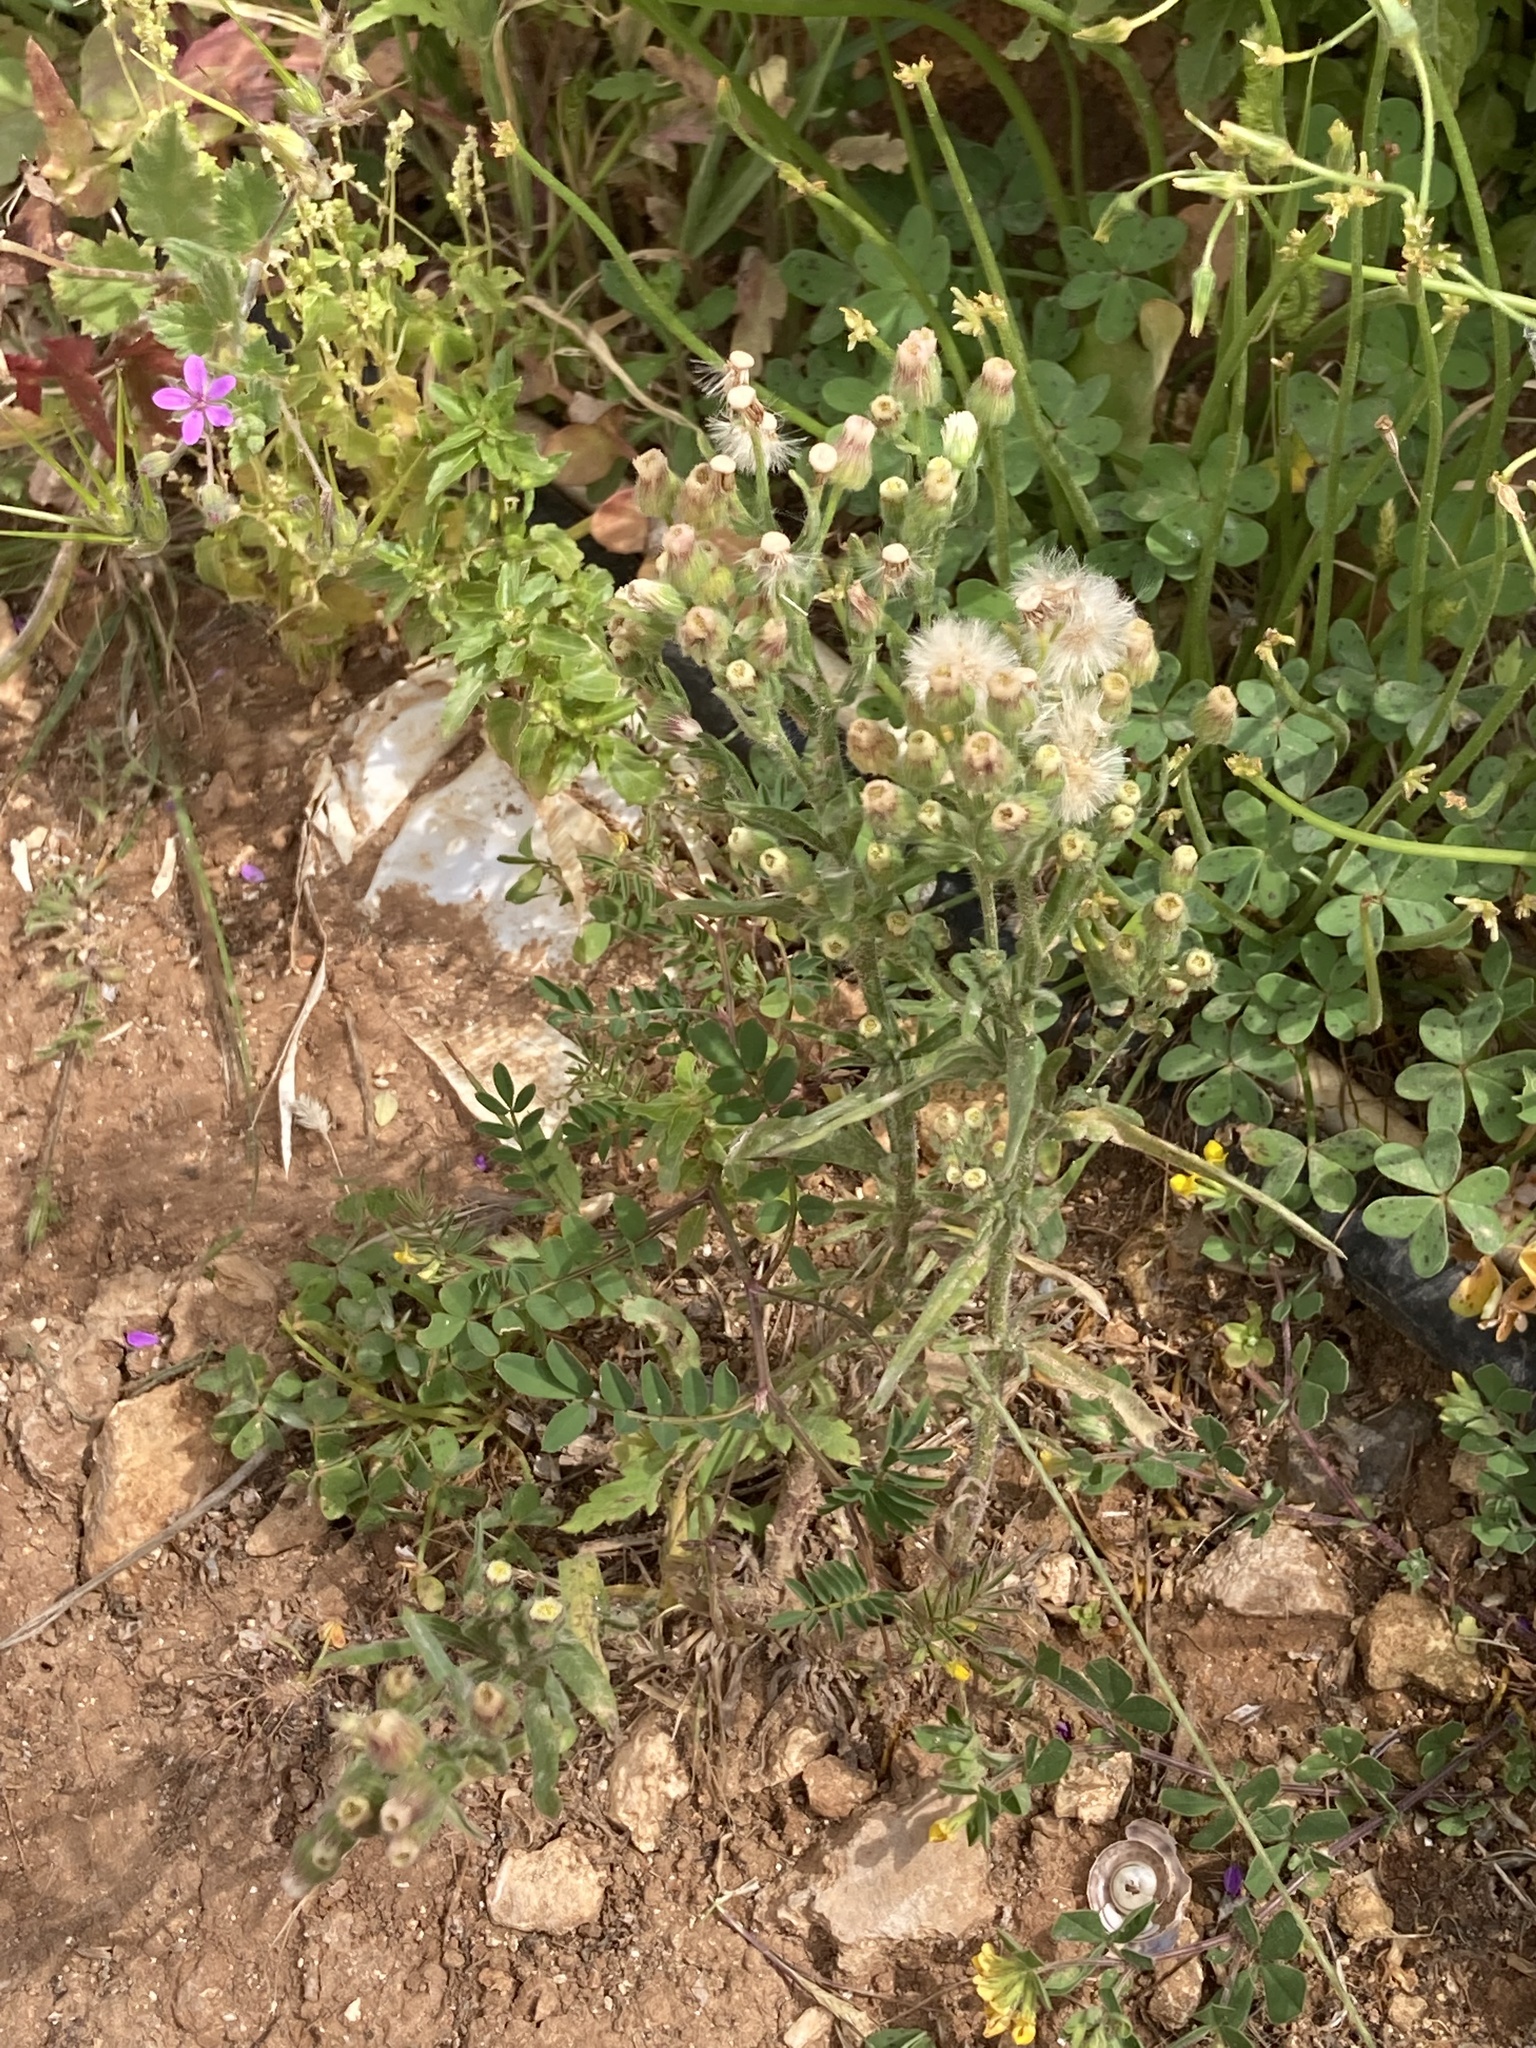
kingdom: Plantae
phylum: Tracheophyta
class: Magnoliopsida
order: Asterales
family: Asteraceae
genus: Erigeron
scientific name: Erigeron bonariensis
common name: Argentine fleabane
